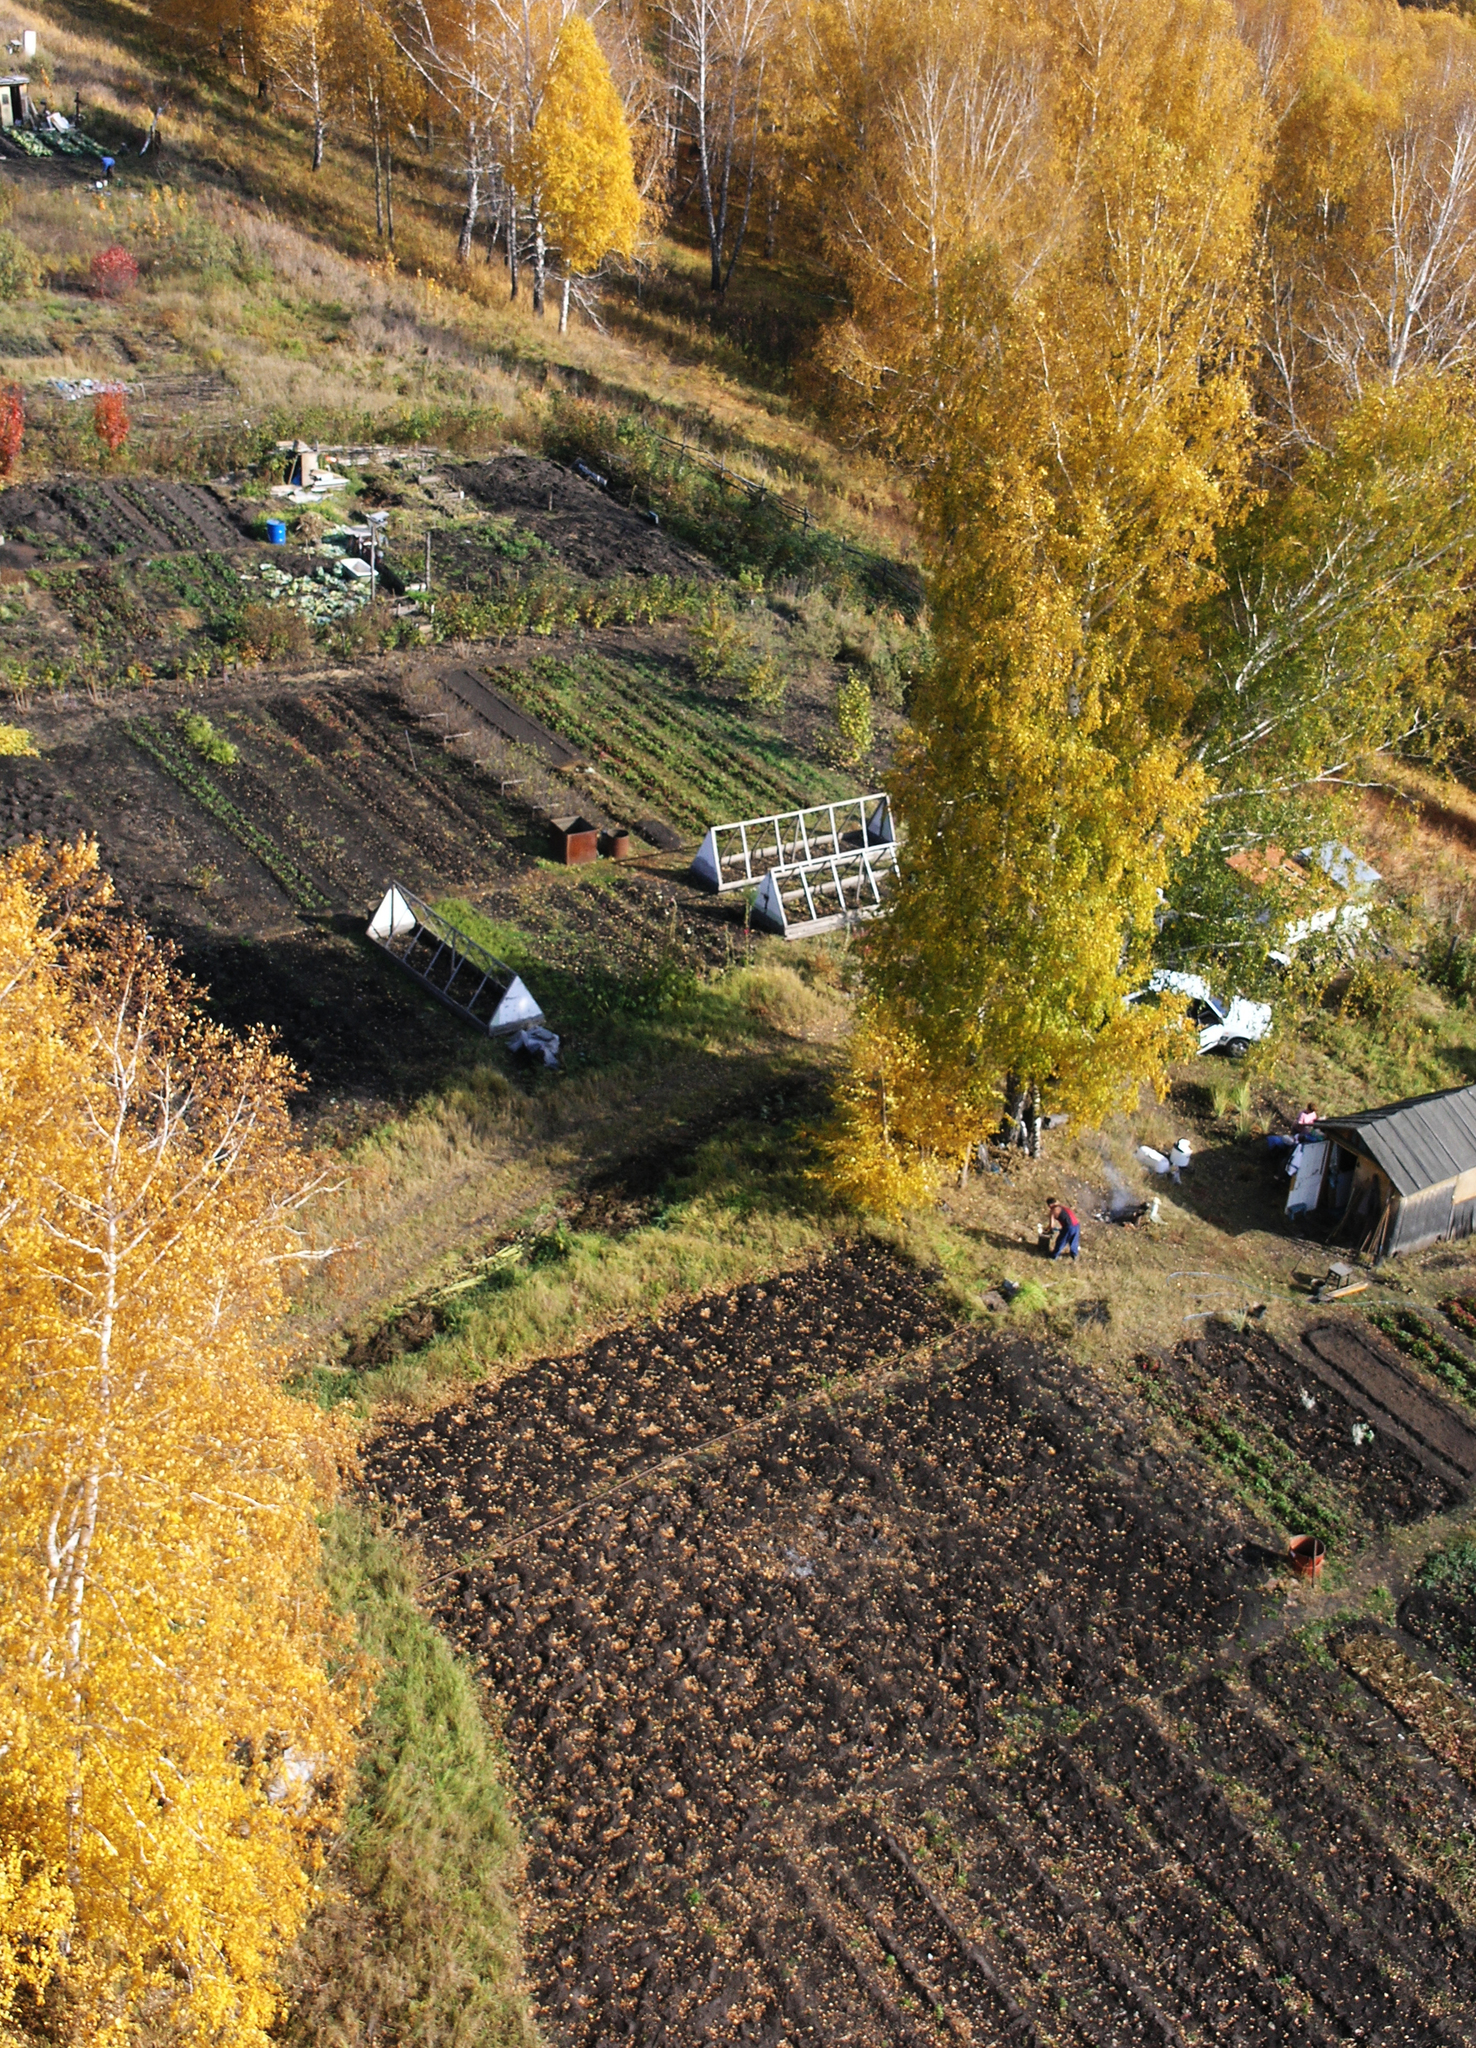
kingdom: Plantae
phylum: Tracheophyta
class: Magnoliopsida
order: Fagales
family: Betulaceae
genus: Betula
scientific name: Betula pendula
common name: Silver birch
